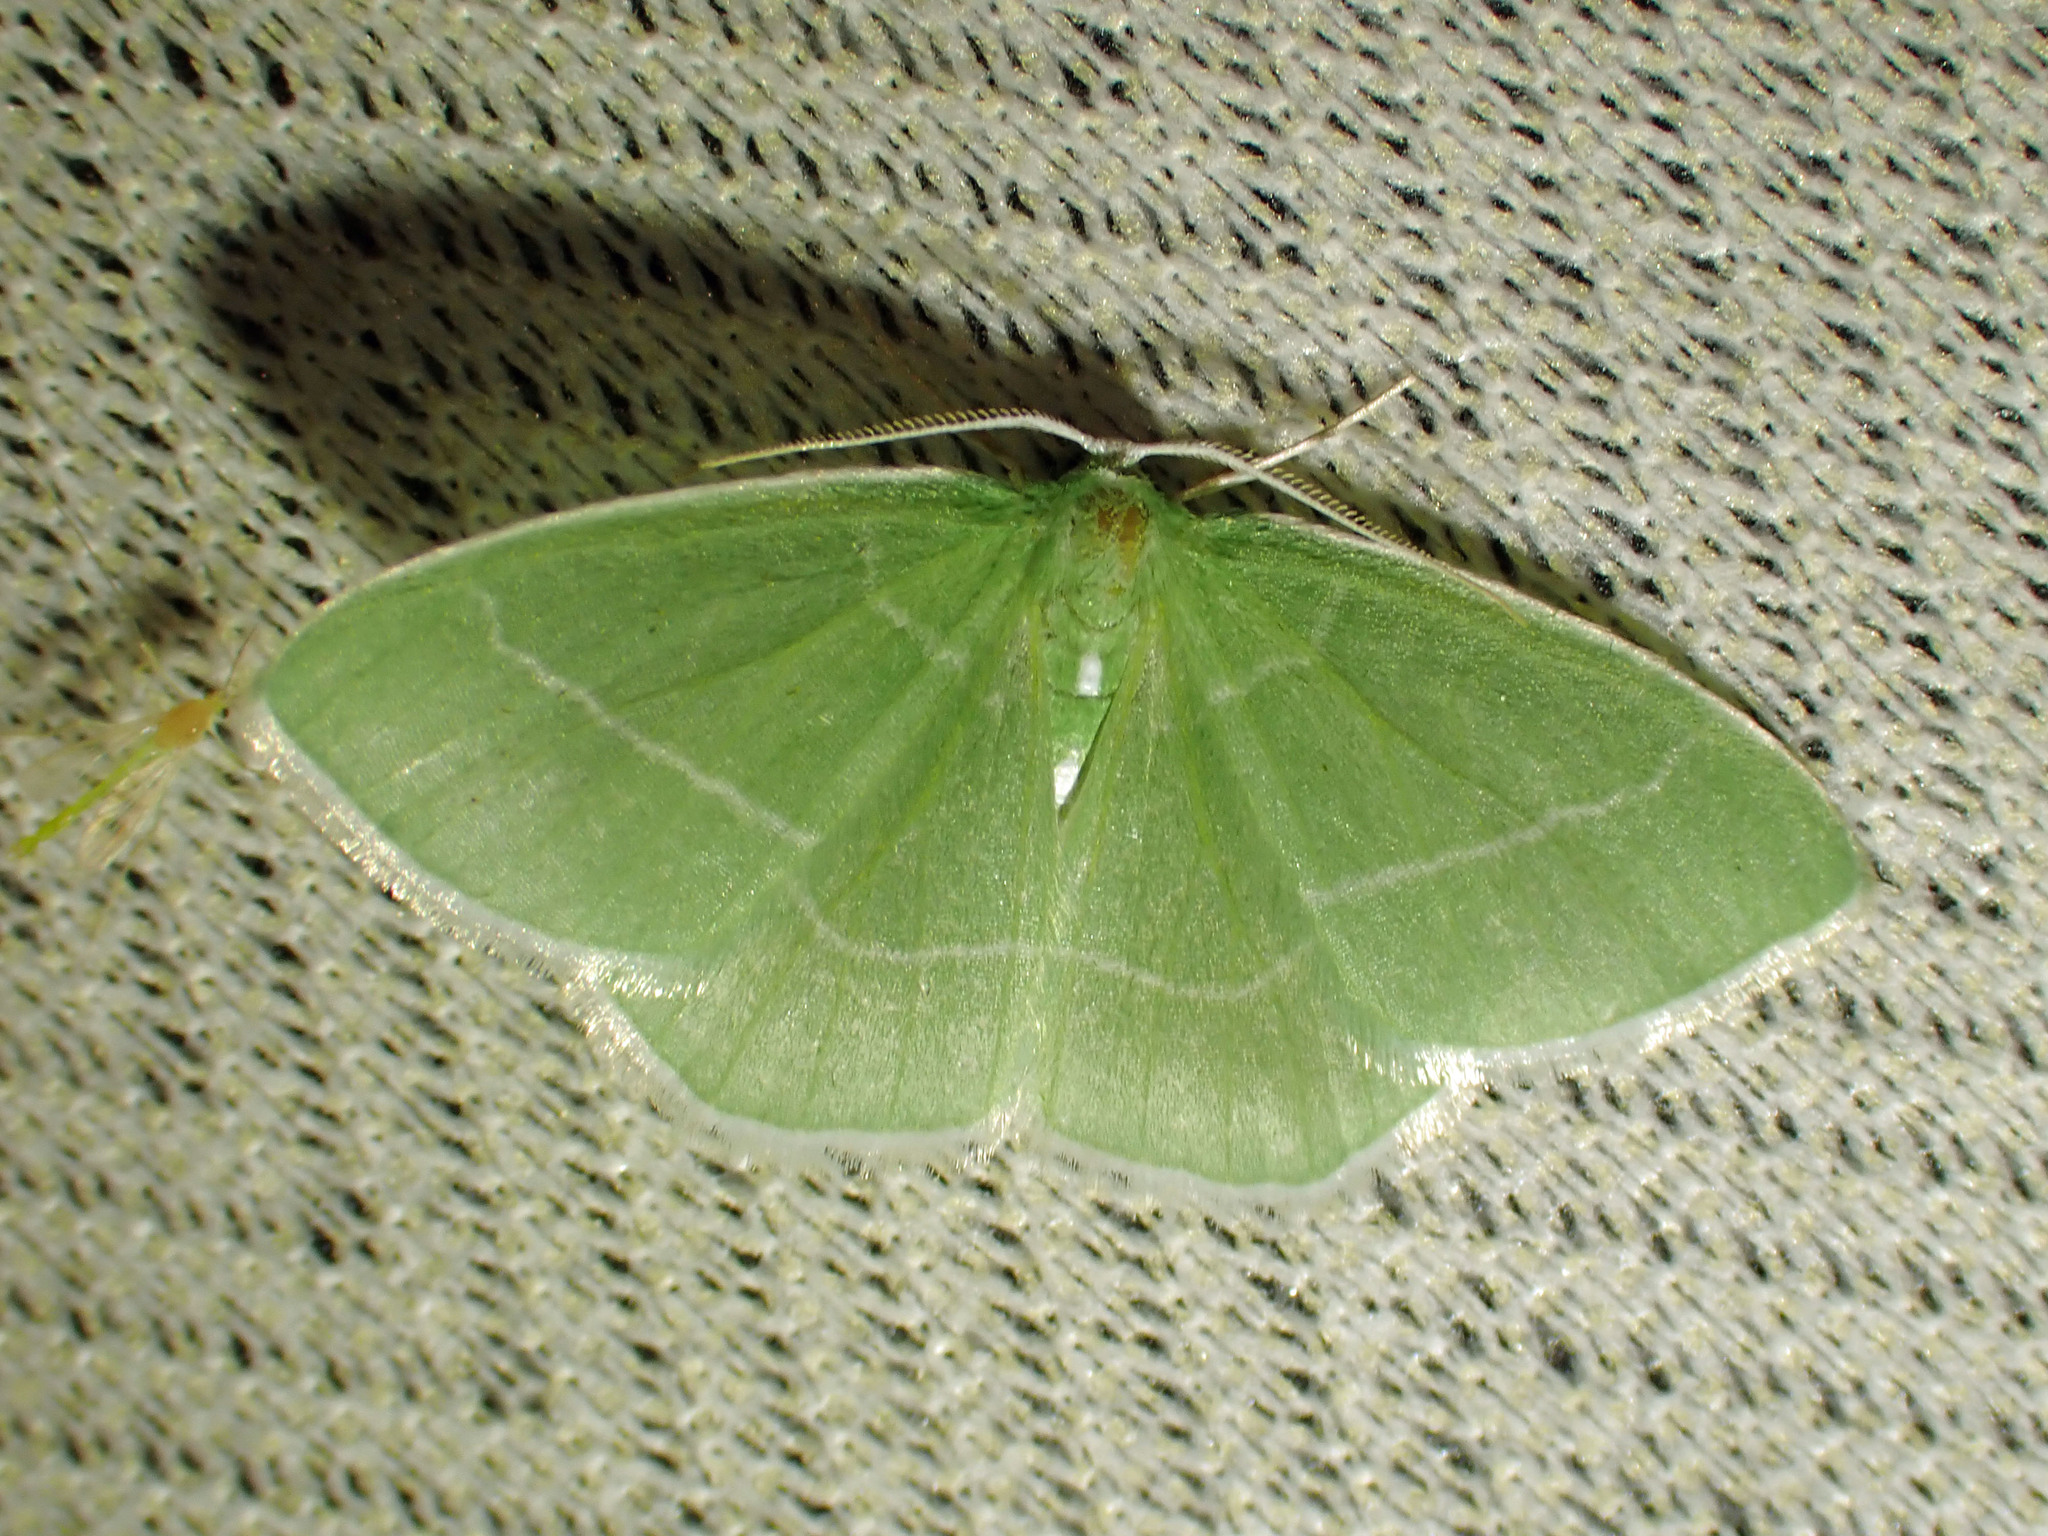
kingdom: Animalia
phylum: Arthropoda
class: Insecta
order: Lepidoptera
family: Geometridae
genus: Nemoria
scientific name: Nemoria mimosaria
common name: White-fringed emerald
